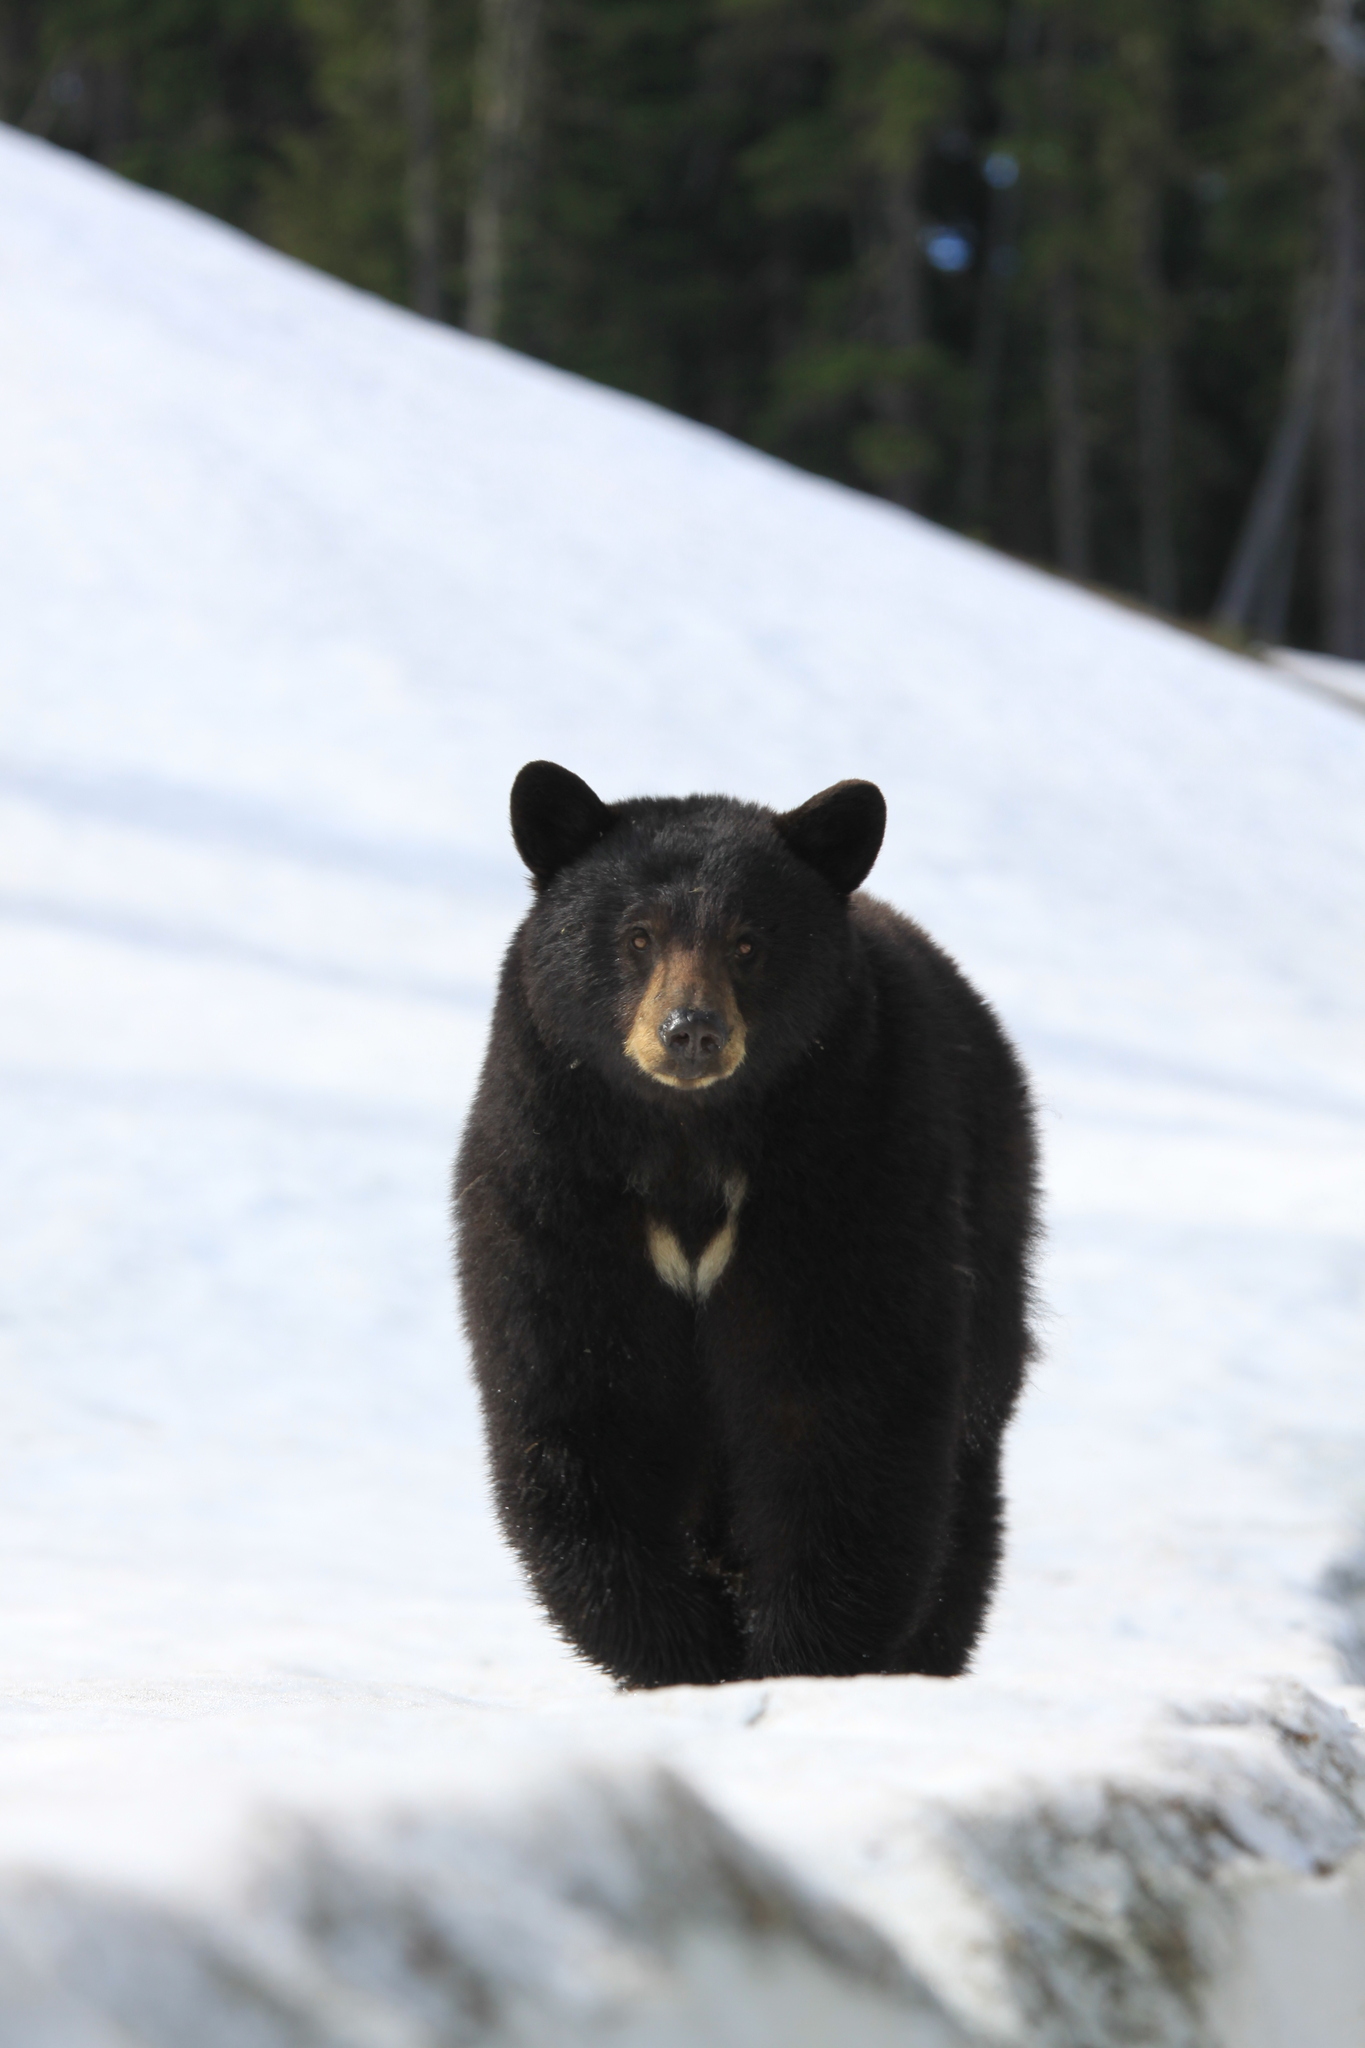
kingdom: Animalia
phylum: Chordata
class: Mammalia
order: Carnivora
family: Ursidae
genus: Ursus
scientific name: Ursus americanus
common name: American black bear
